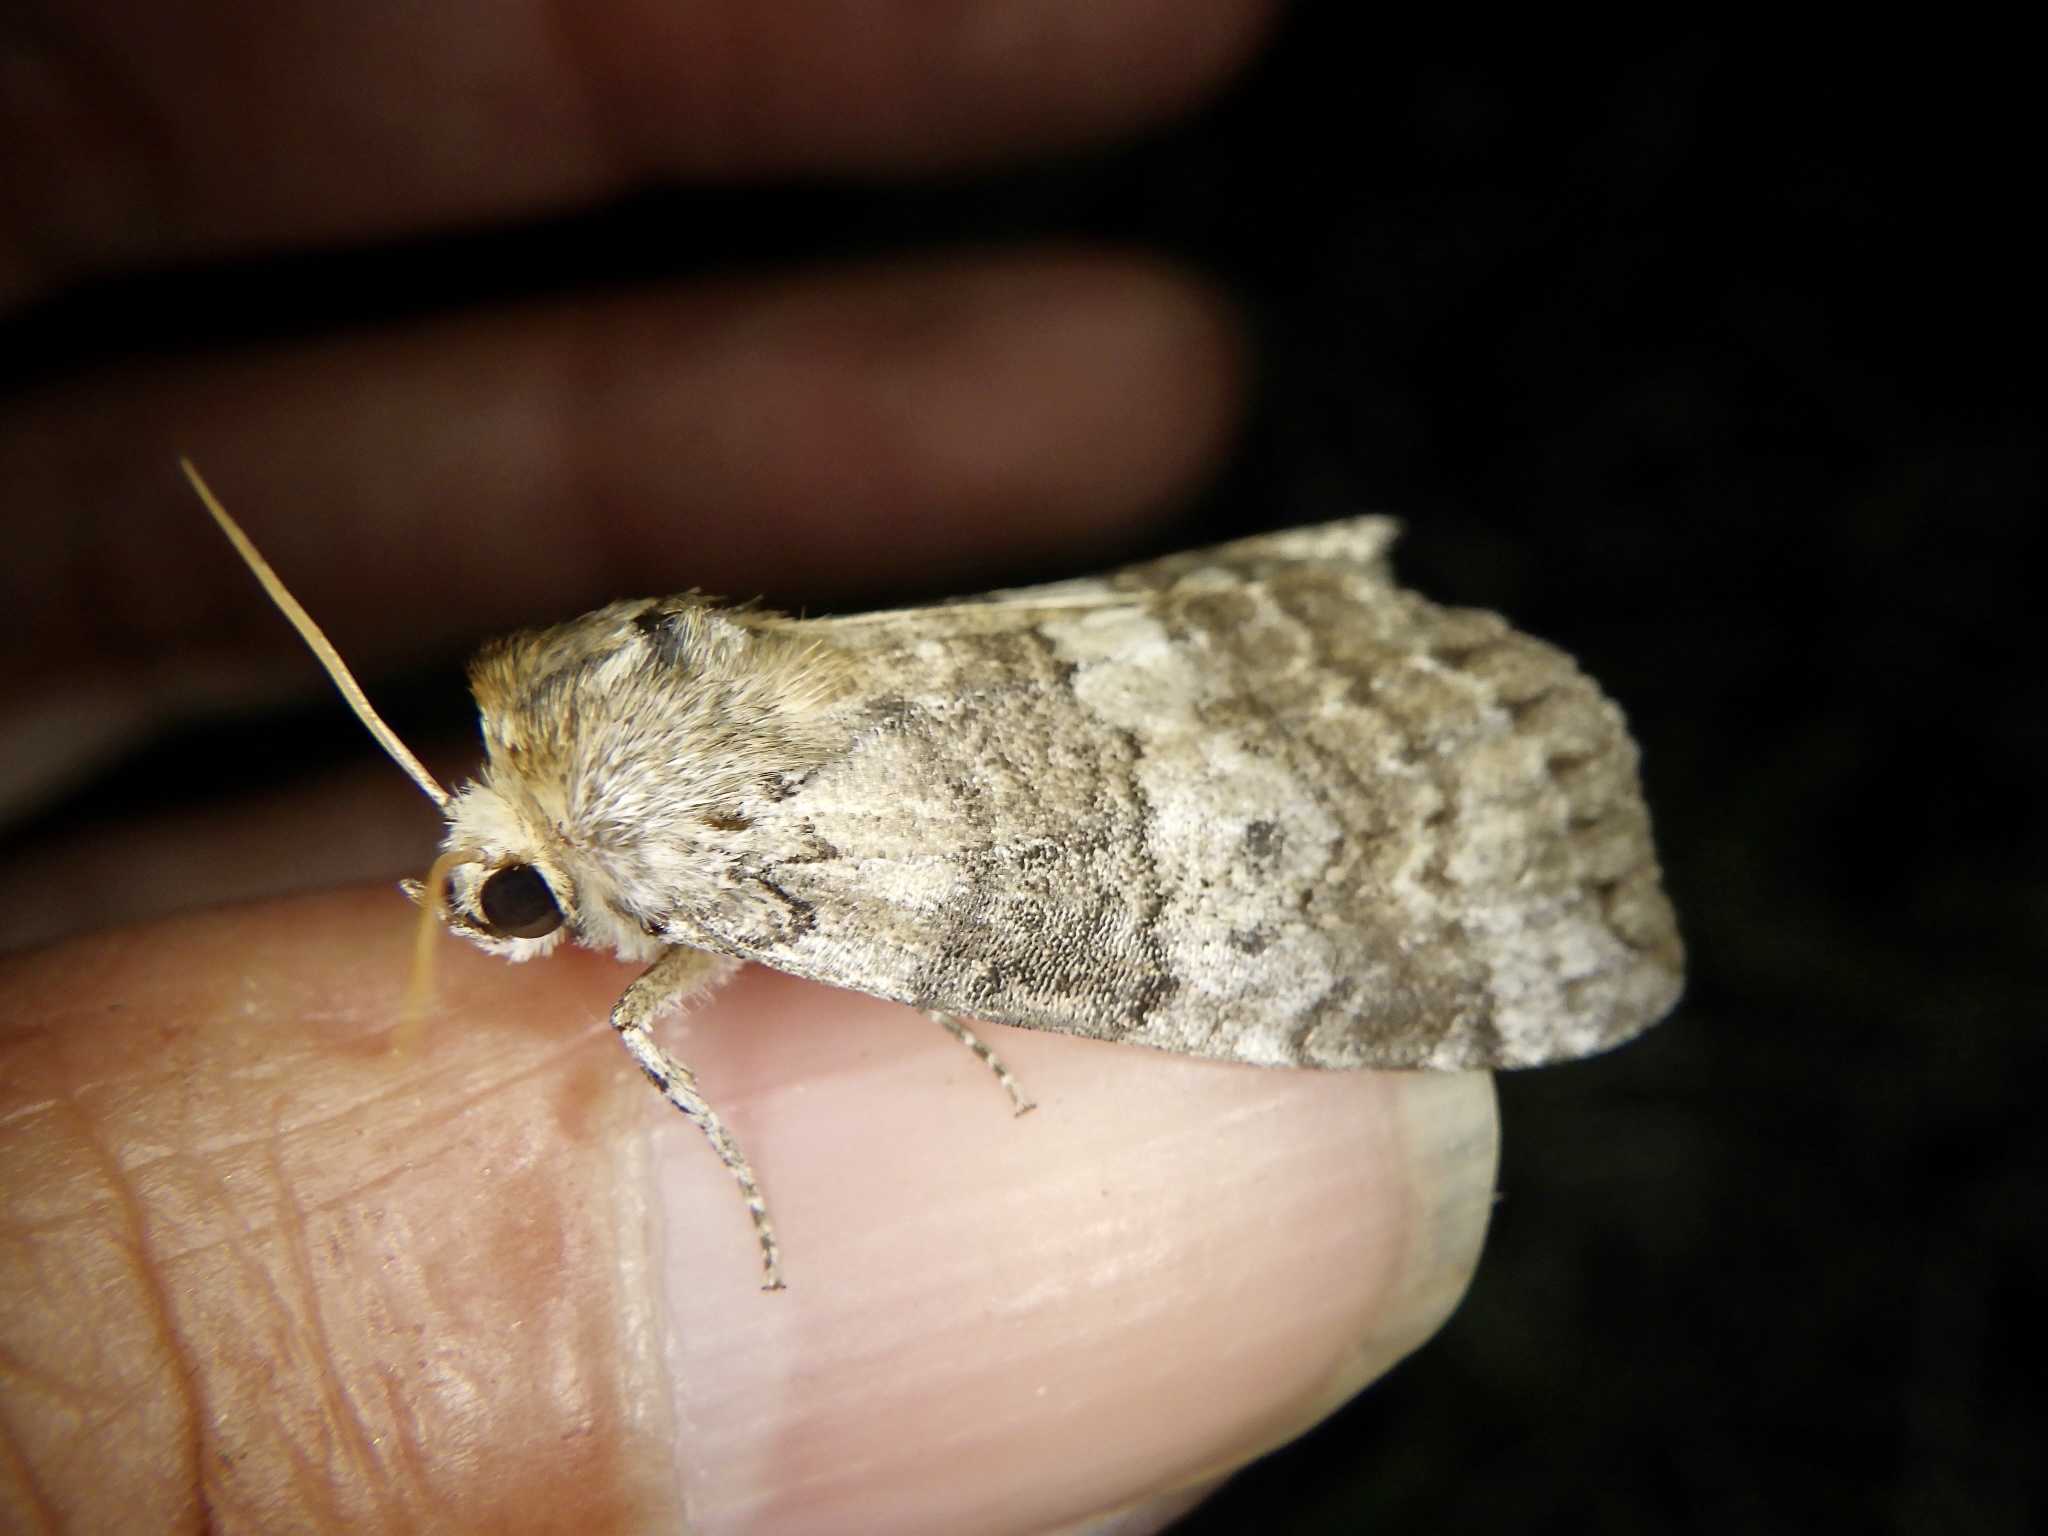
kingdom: Animalia
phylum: Arthropoda
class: Insecta
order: Lepidoptera
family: Drepanidae
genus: Tethea
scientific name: Tethea ampliata
